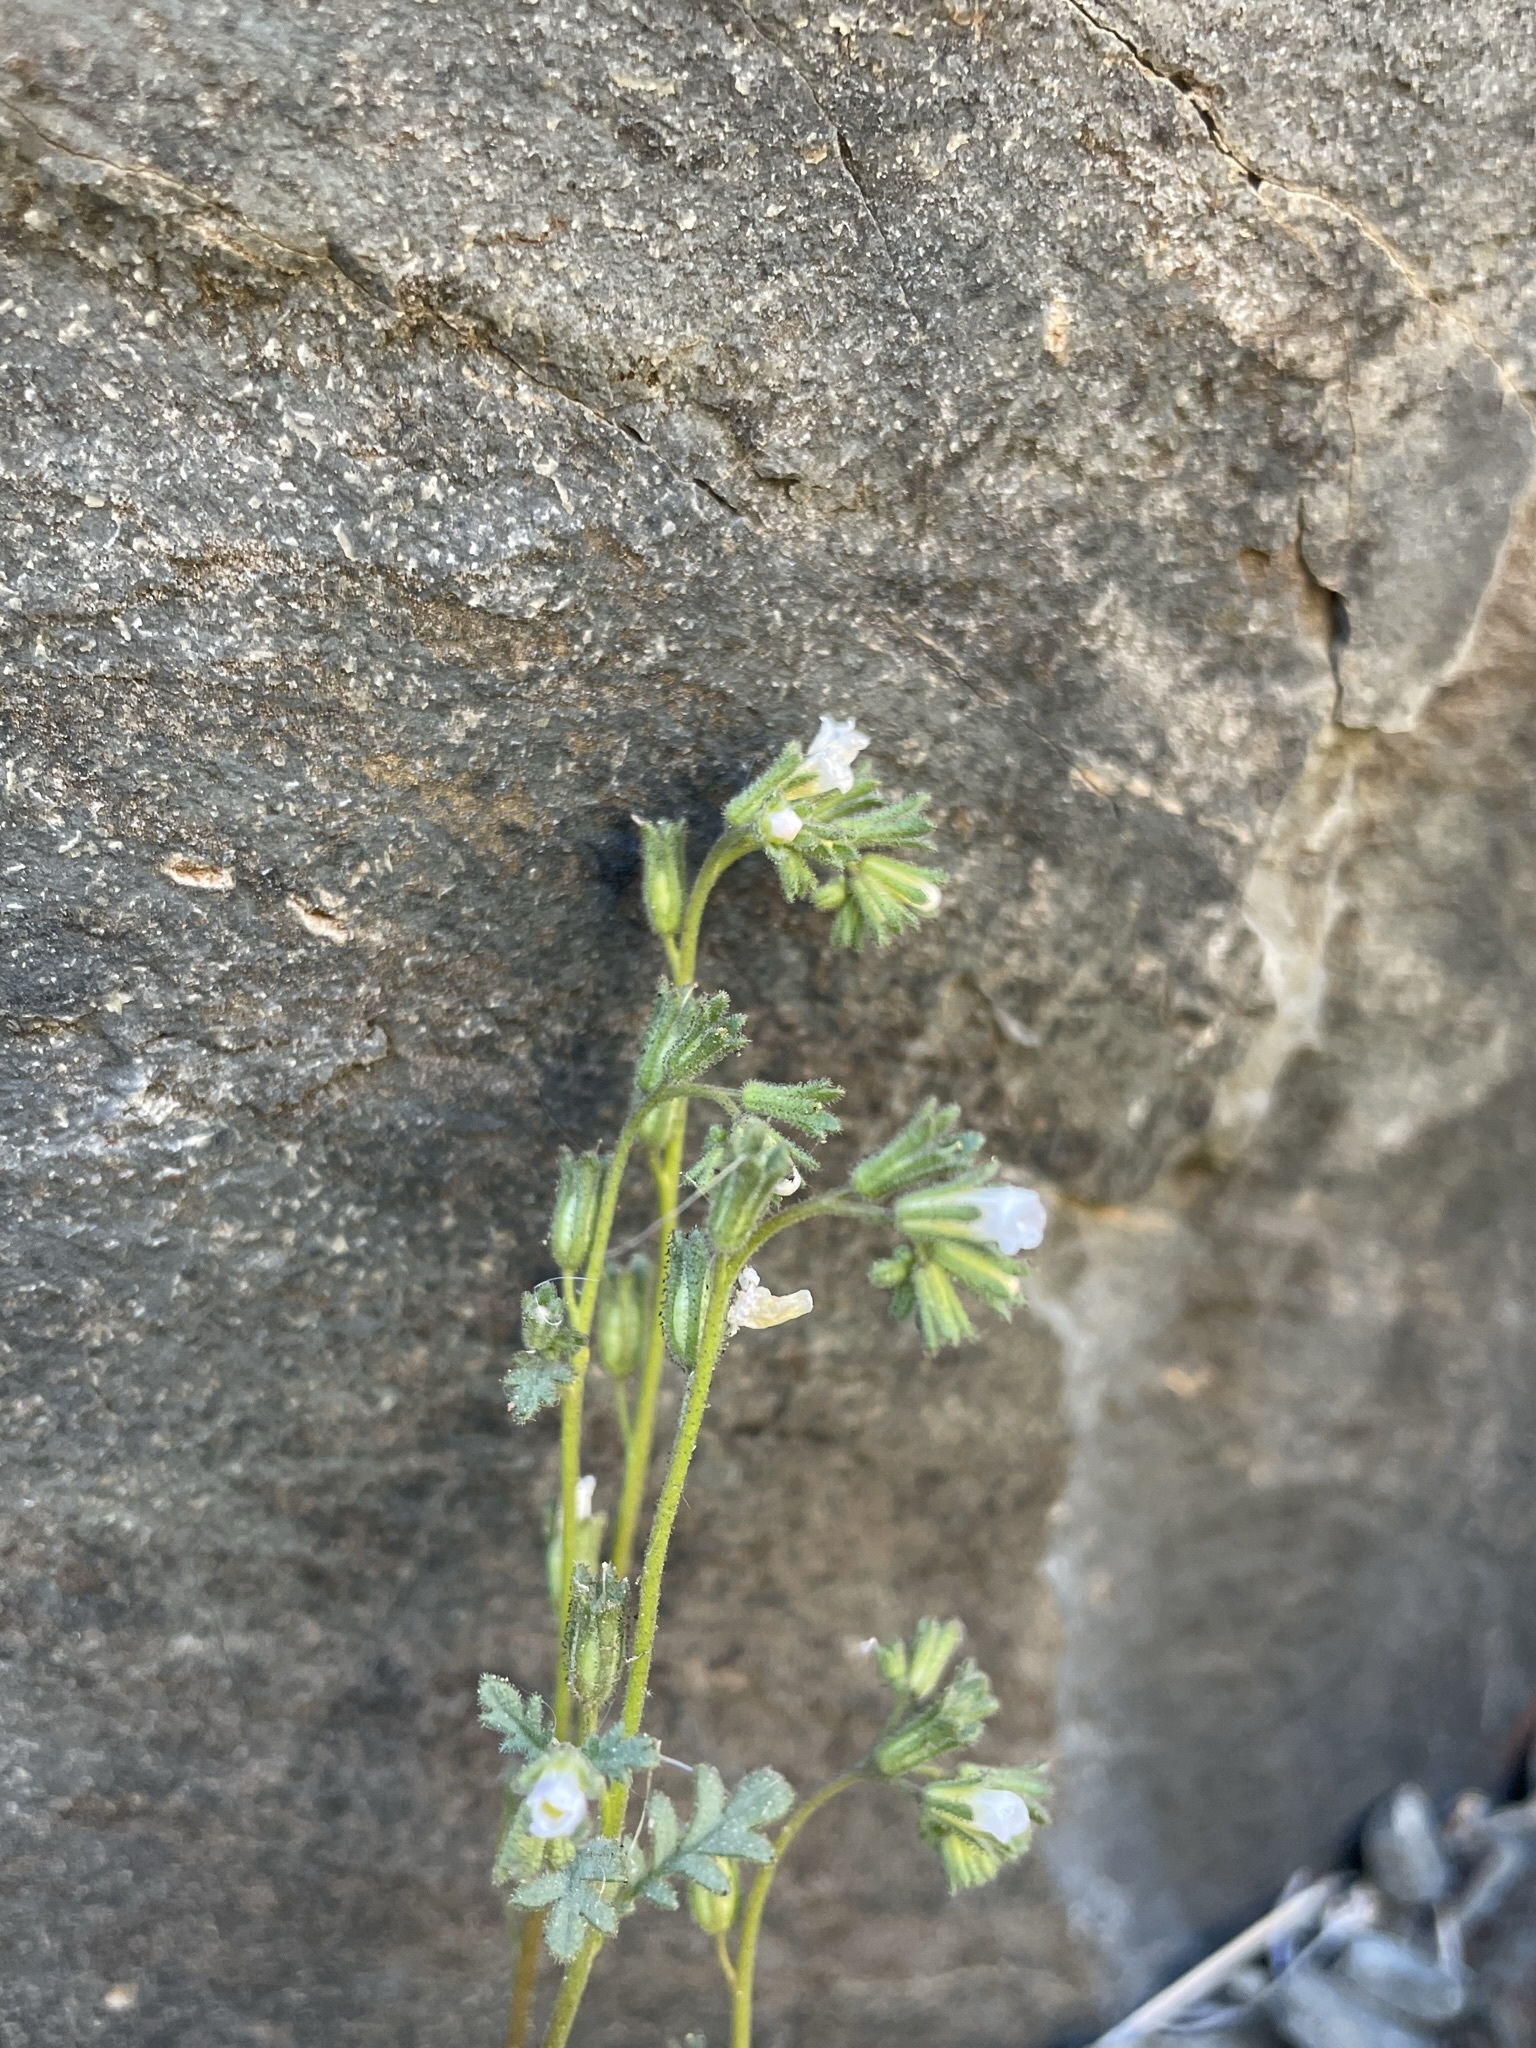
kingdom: Plantae
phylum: Tracheophyta
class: Magnoliopsida
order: Boraginales
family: Hydrophyllaceae
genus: Phacelia
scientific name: Phacelia affinis
